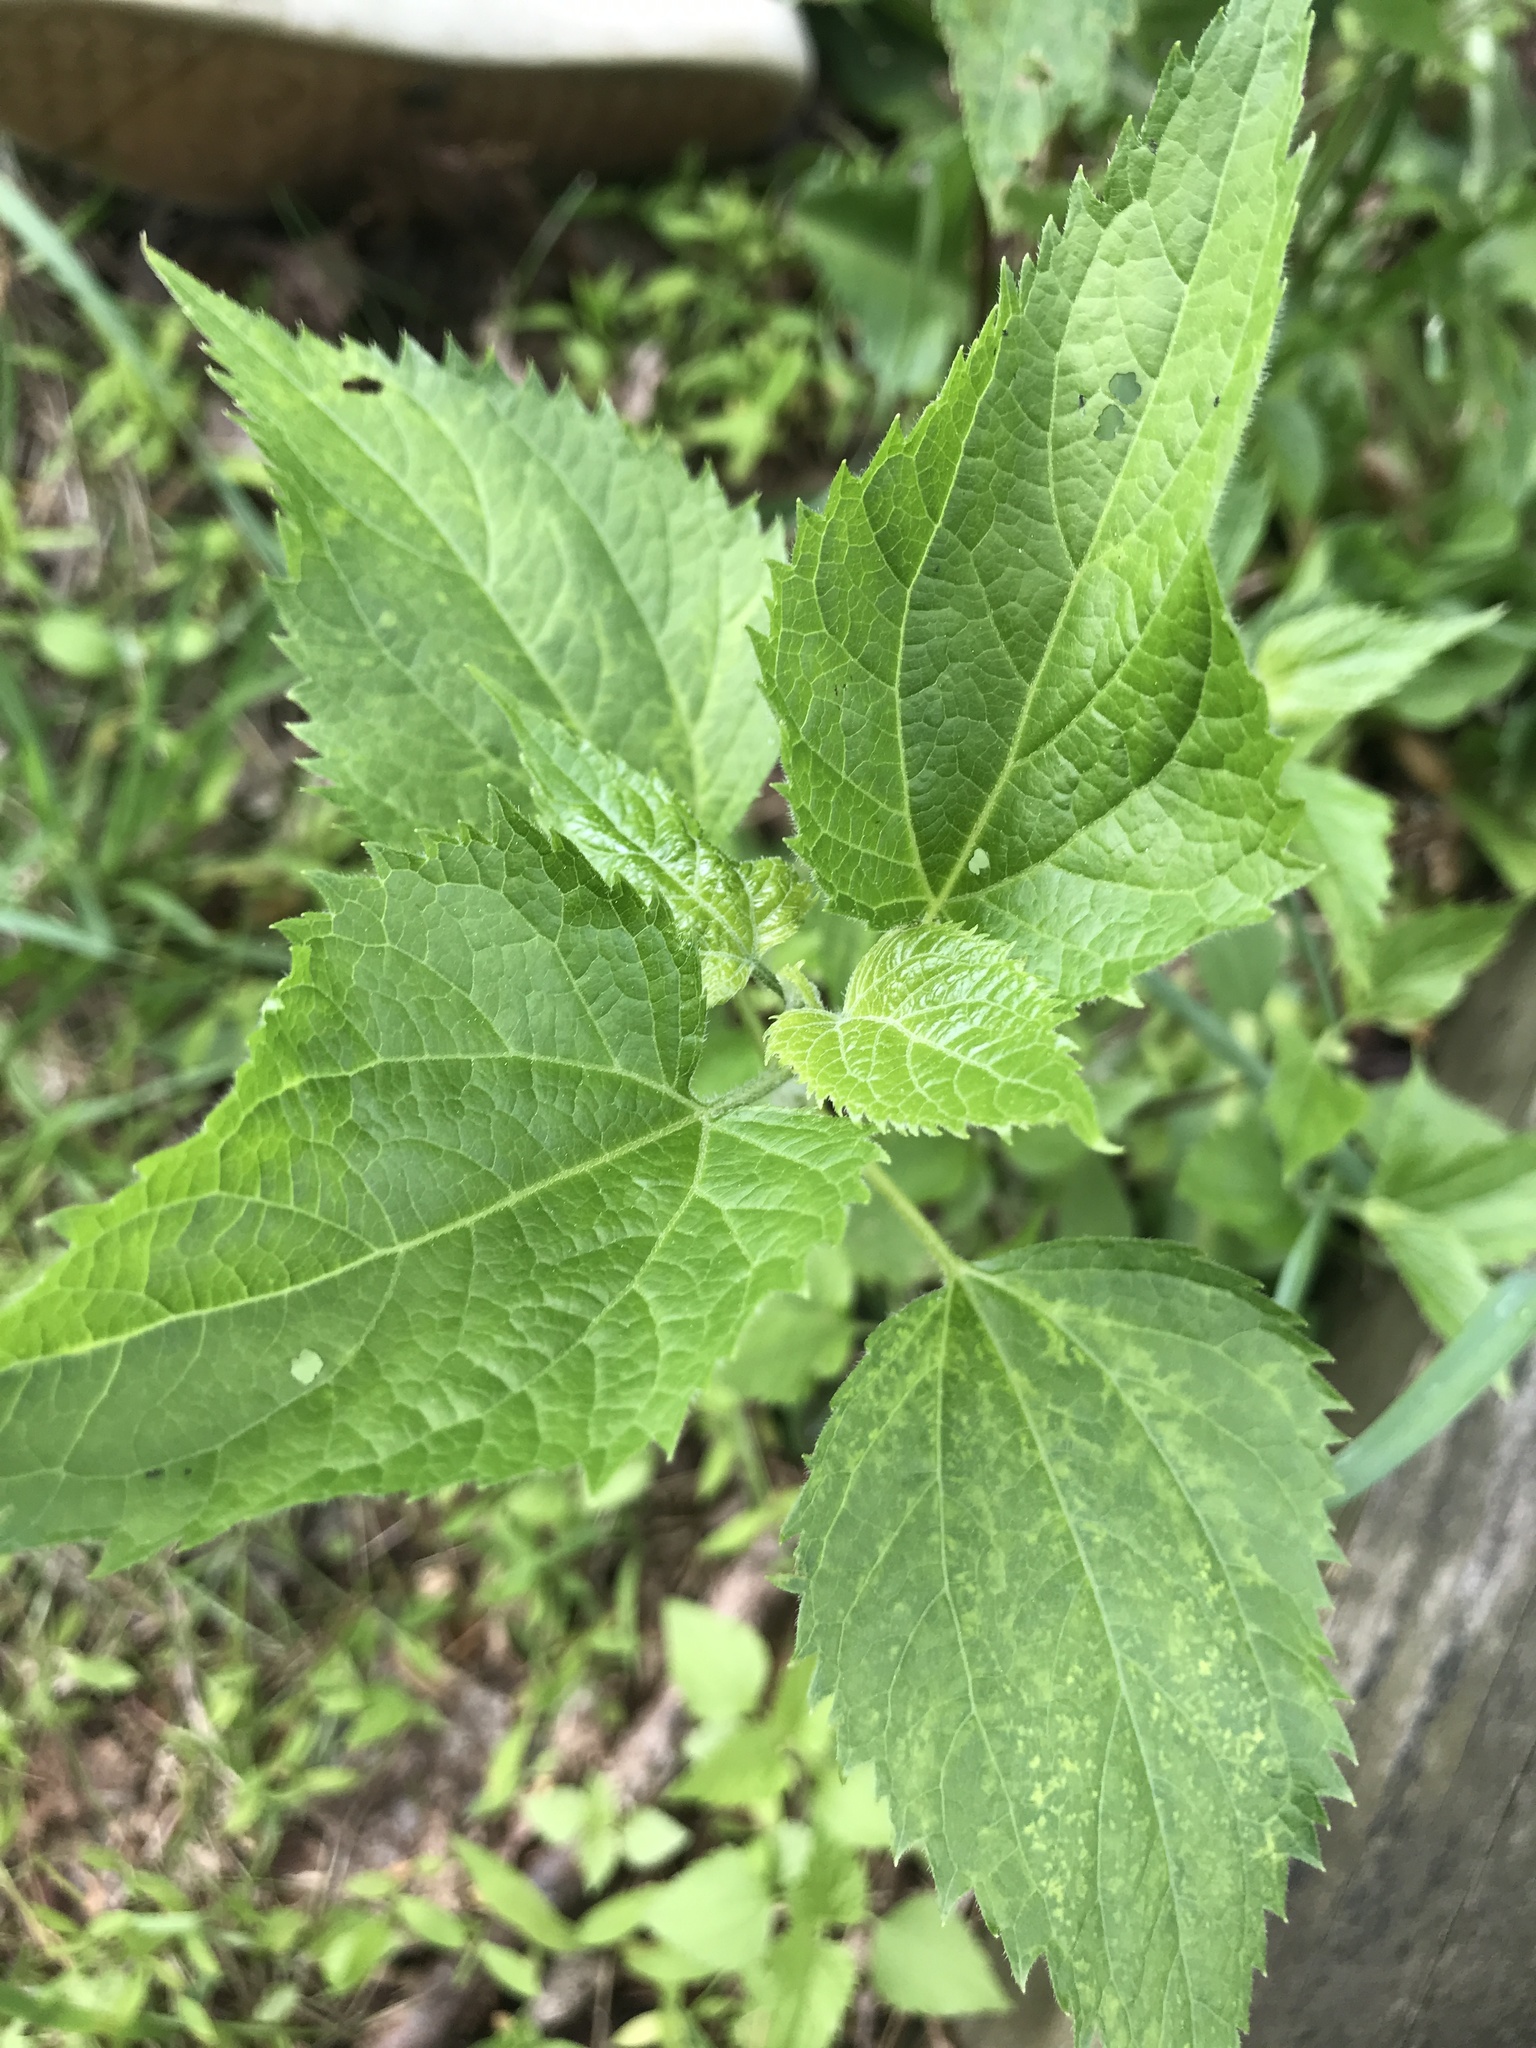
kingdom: Plantae
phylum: Tracheophyta
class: Magnoliopsida
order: Asterales
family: Asteraceae
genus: Ageratina
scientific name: Ageratina altissima
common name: White snakeroot
